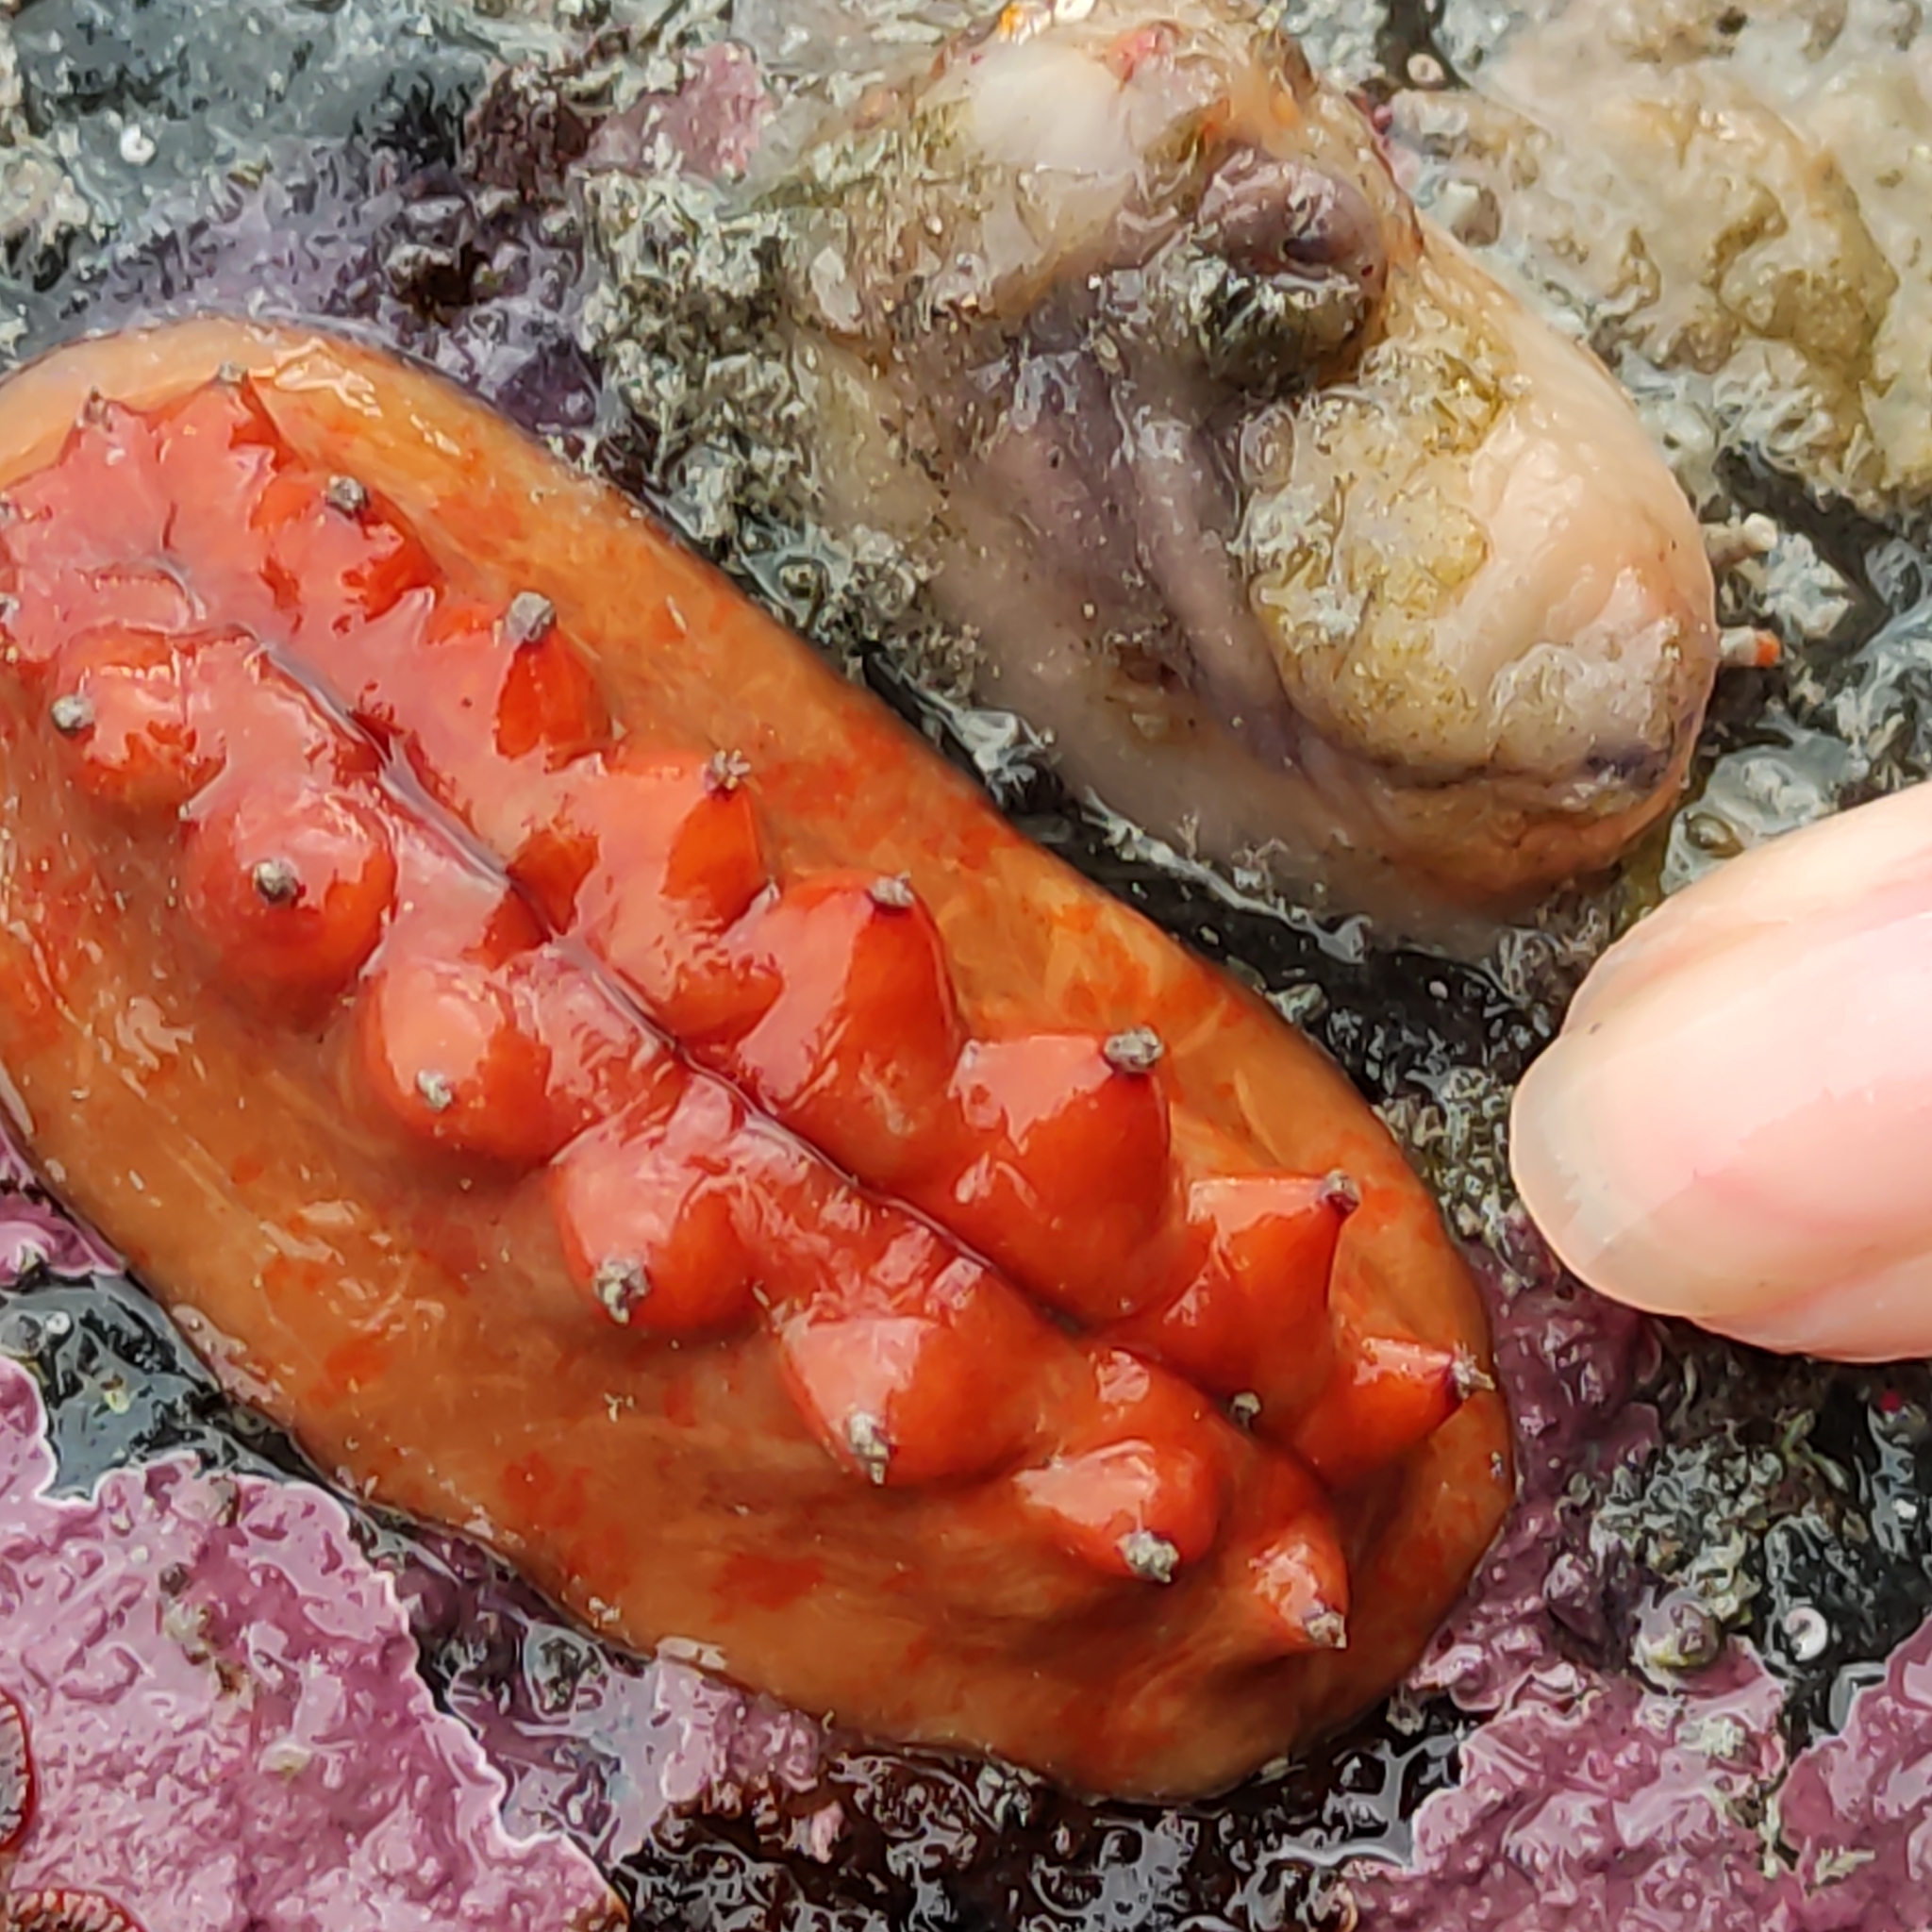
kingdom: Animalia
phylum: Mollusca
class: Polyplacophora
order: Chitonida
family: Acanthochitonidae
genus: Cryptoconchus
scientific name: Cryptoconchus porosus
